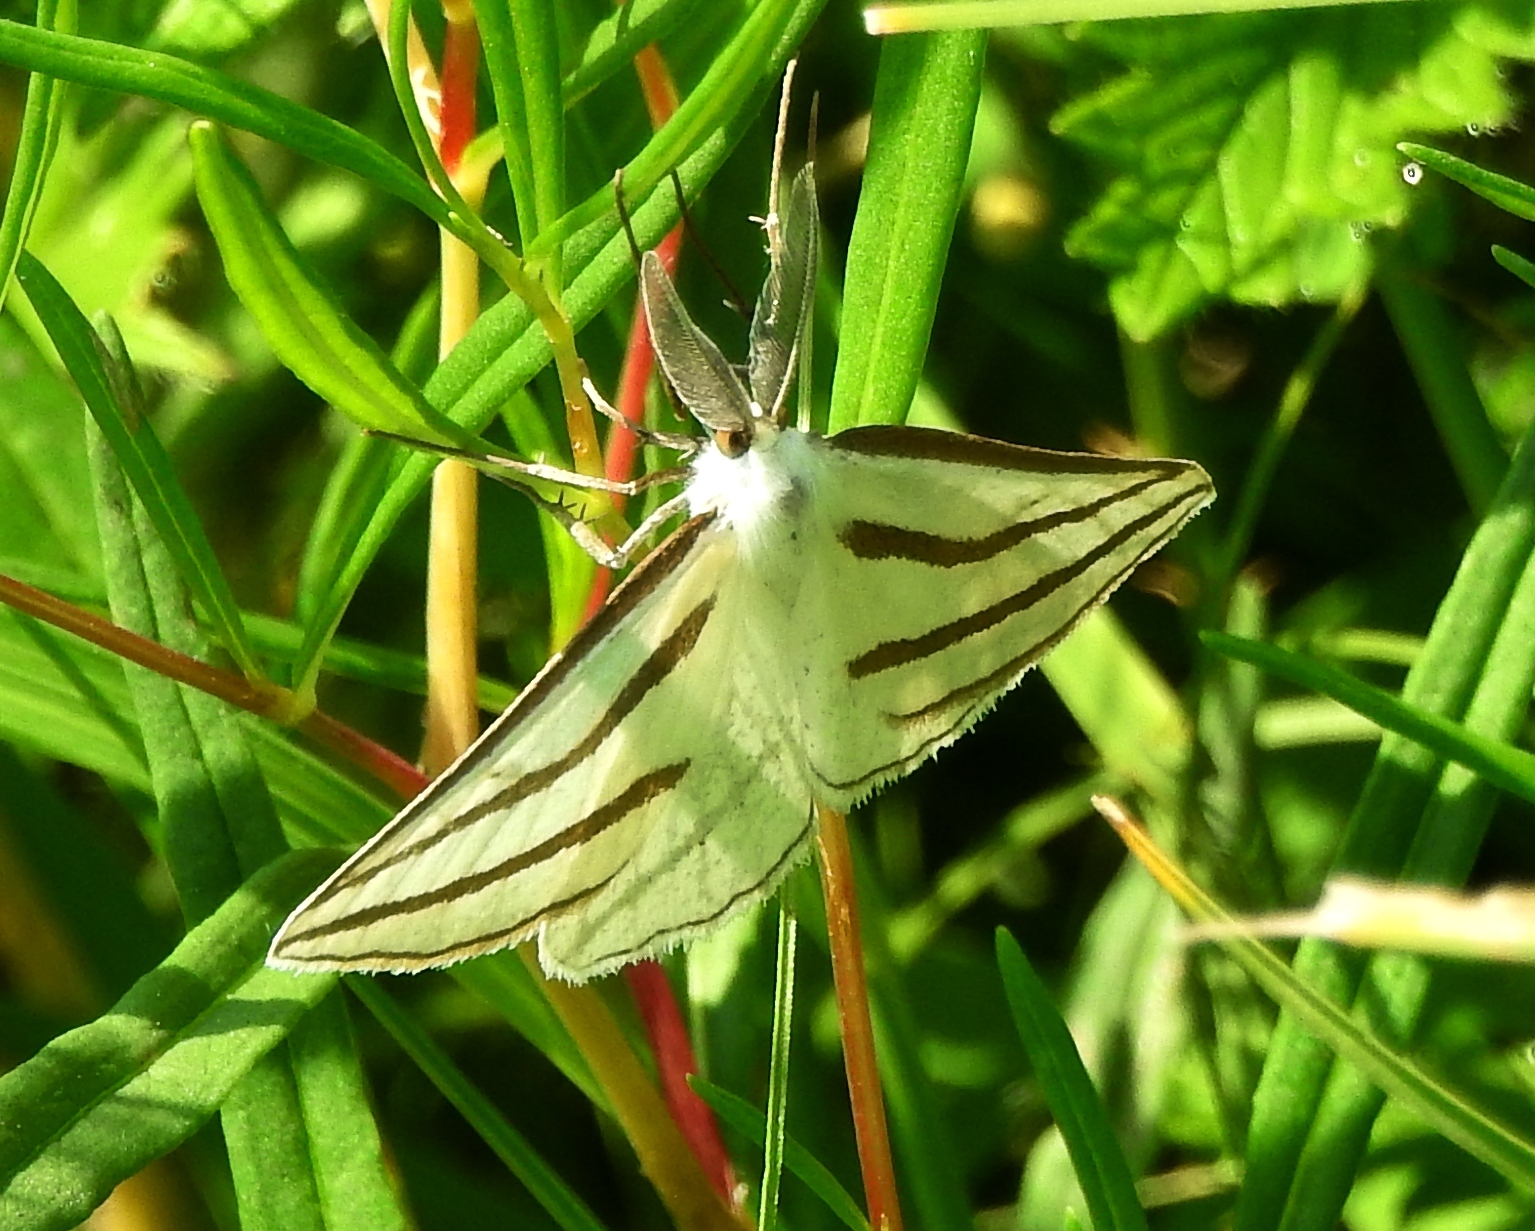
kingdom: Animalia
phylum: Arthropoda
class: Insecta
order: Lepidoptera
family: Geometridae
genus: Megaspilates
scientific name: Megaspilates mundataria
